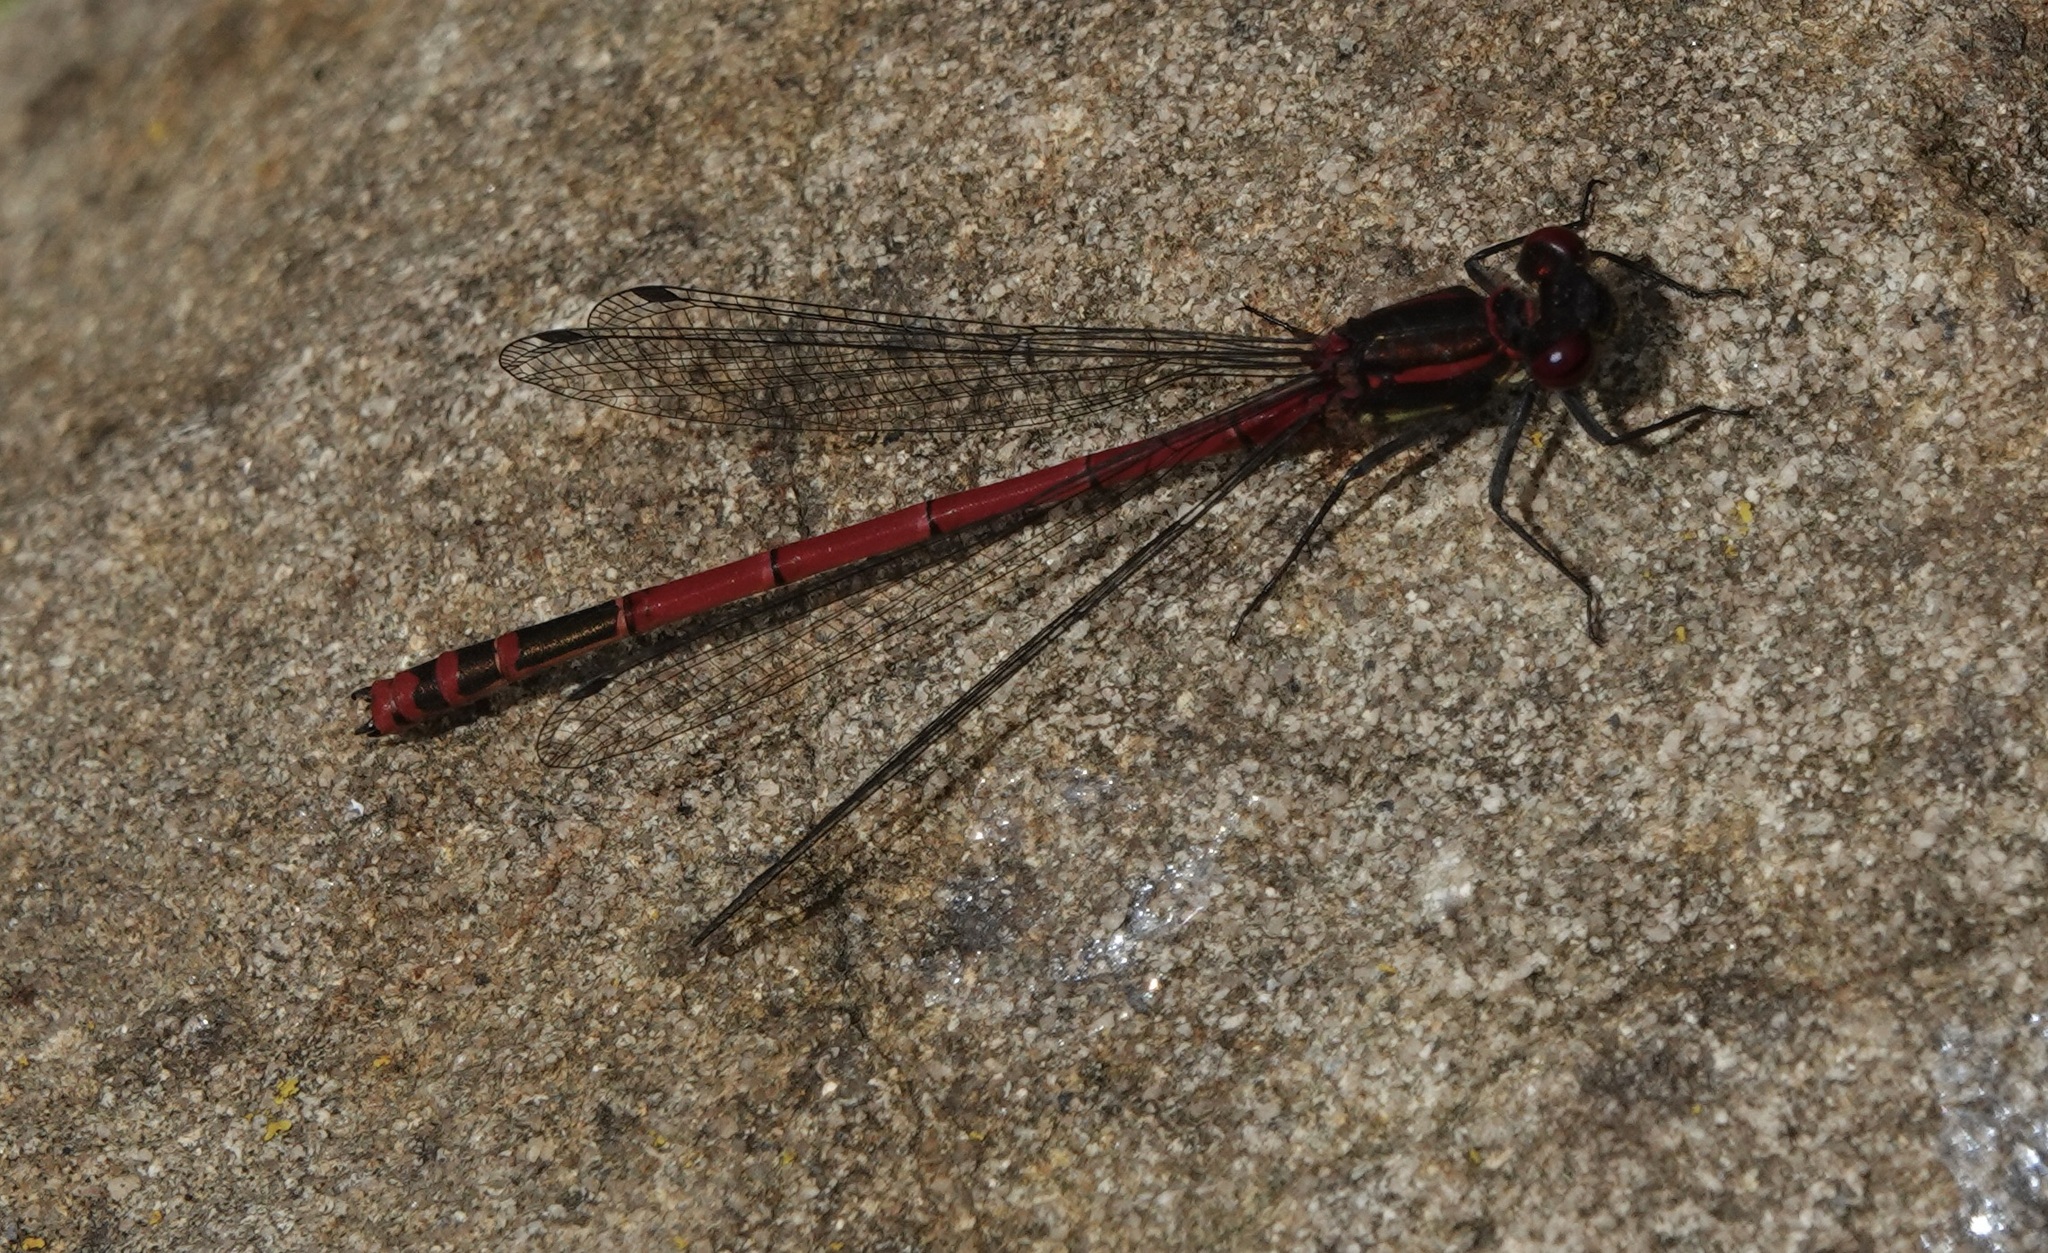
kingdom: Animalia
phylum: Arthropoda
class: Insecta
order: Odonata
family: Coenagrionidae
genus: Pyrrhosoma
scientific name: Pyrrhosoma nymphula
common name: Large red damsel
